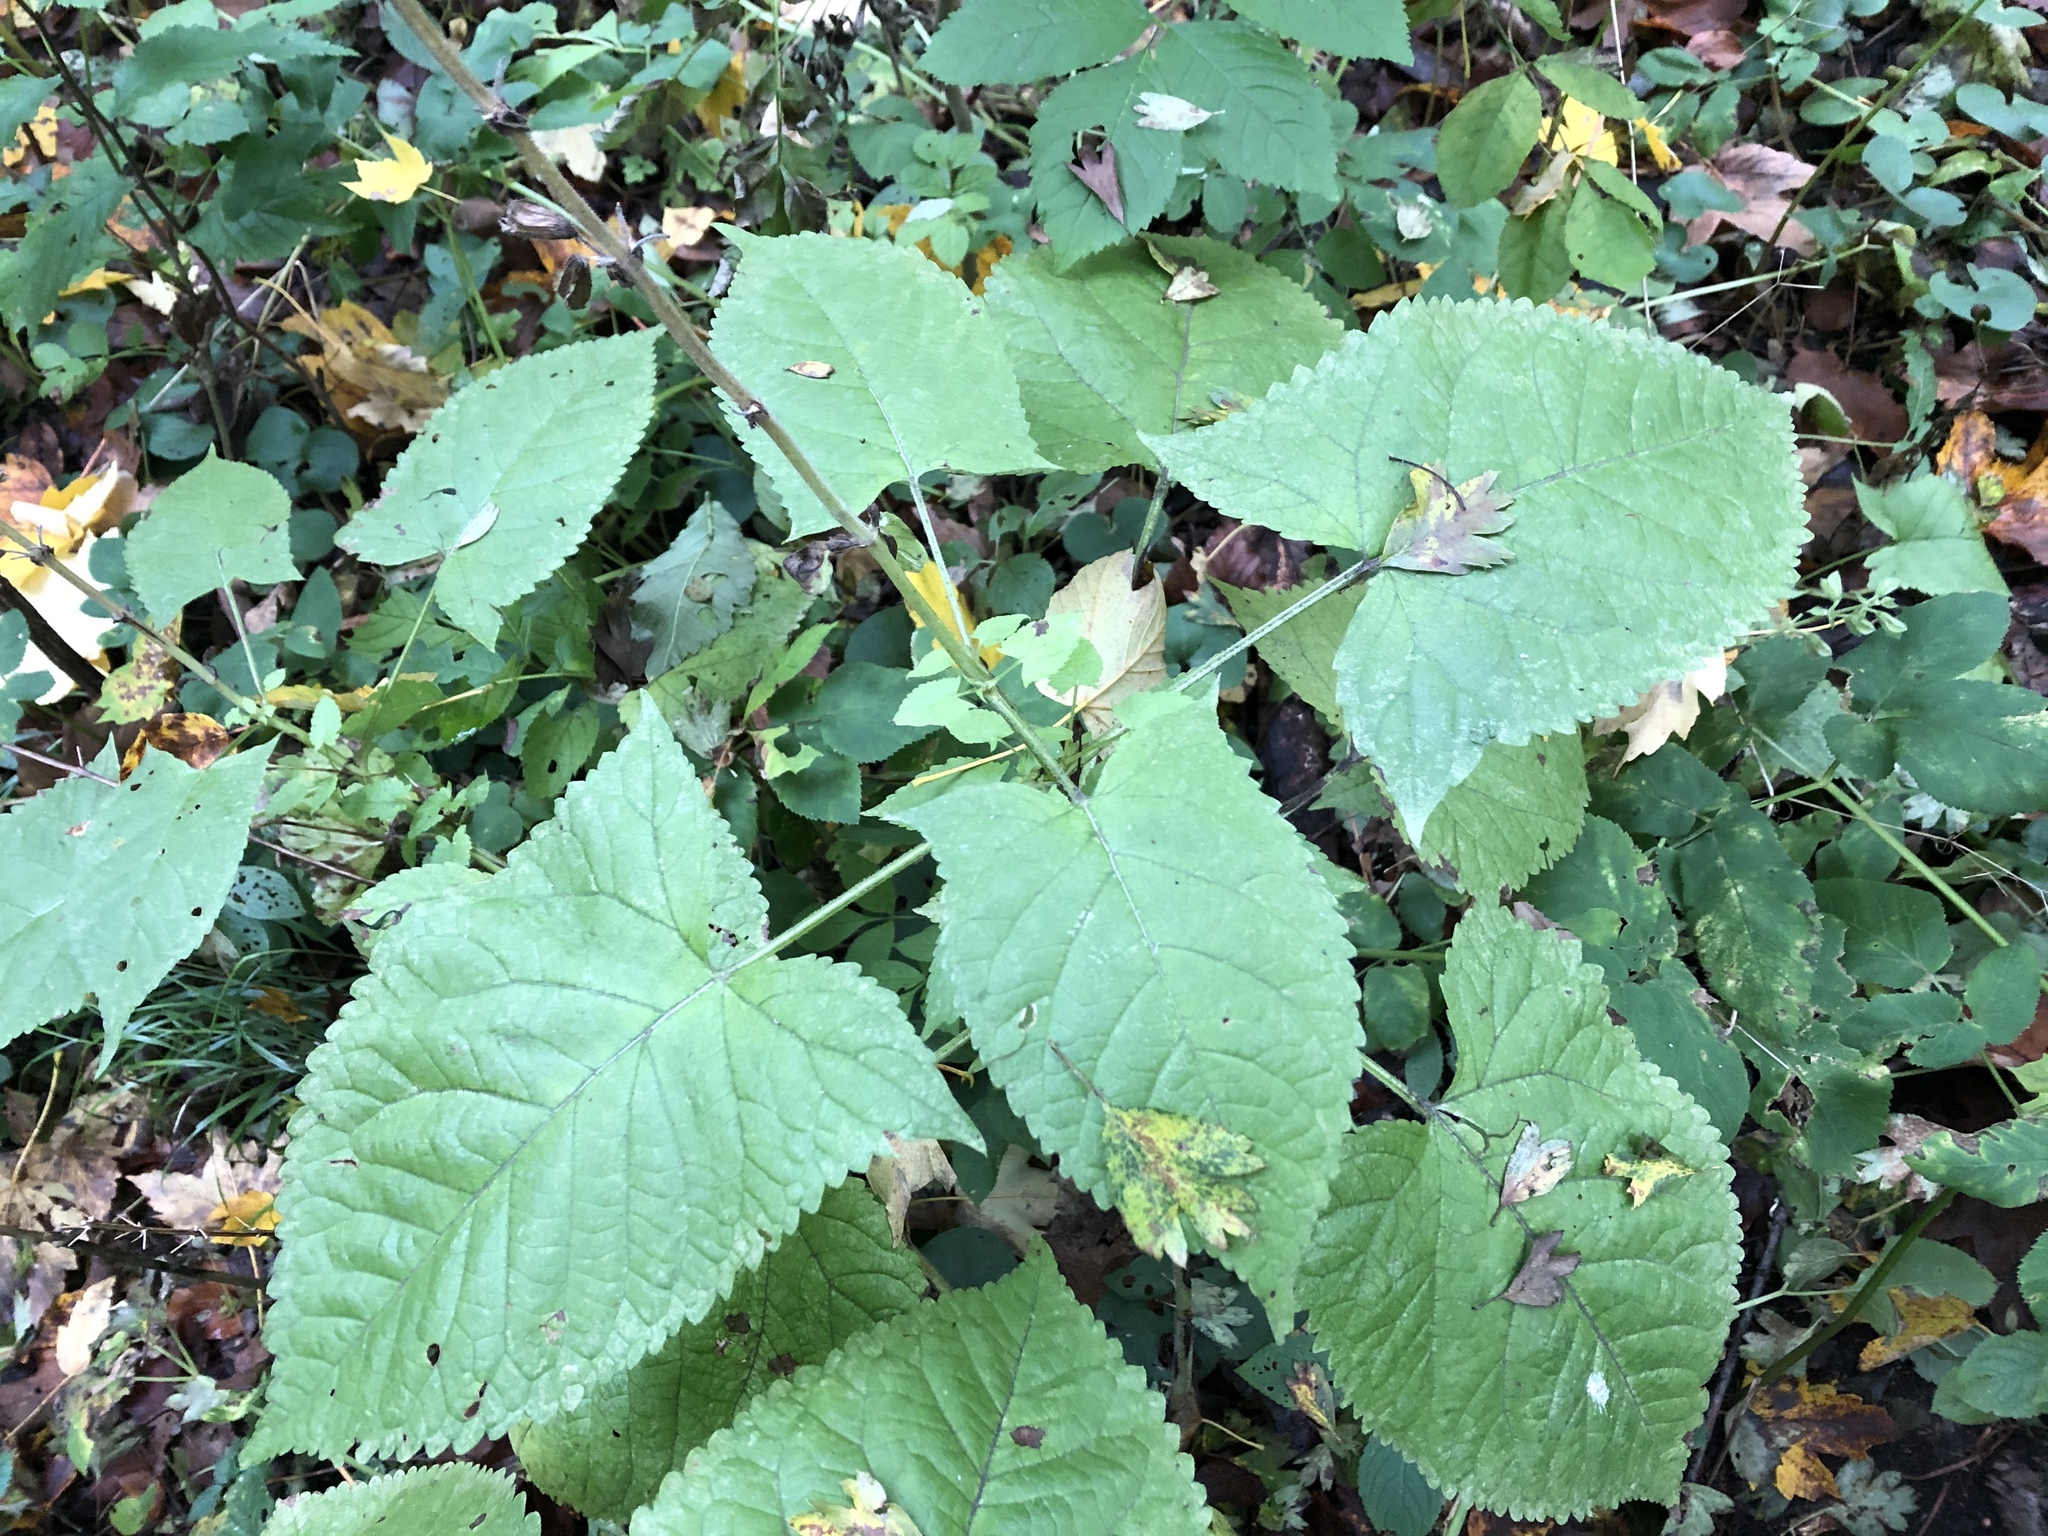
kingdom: Plantae
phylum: Tracheophyta
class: Magnoliopsida
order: Lamiales
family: Lamiaceae
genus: Salvia
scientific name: Salvia glutinosa
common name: Sticky clary
